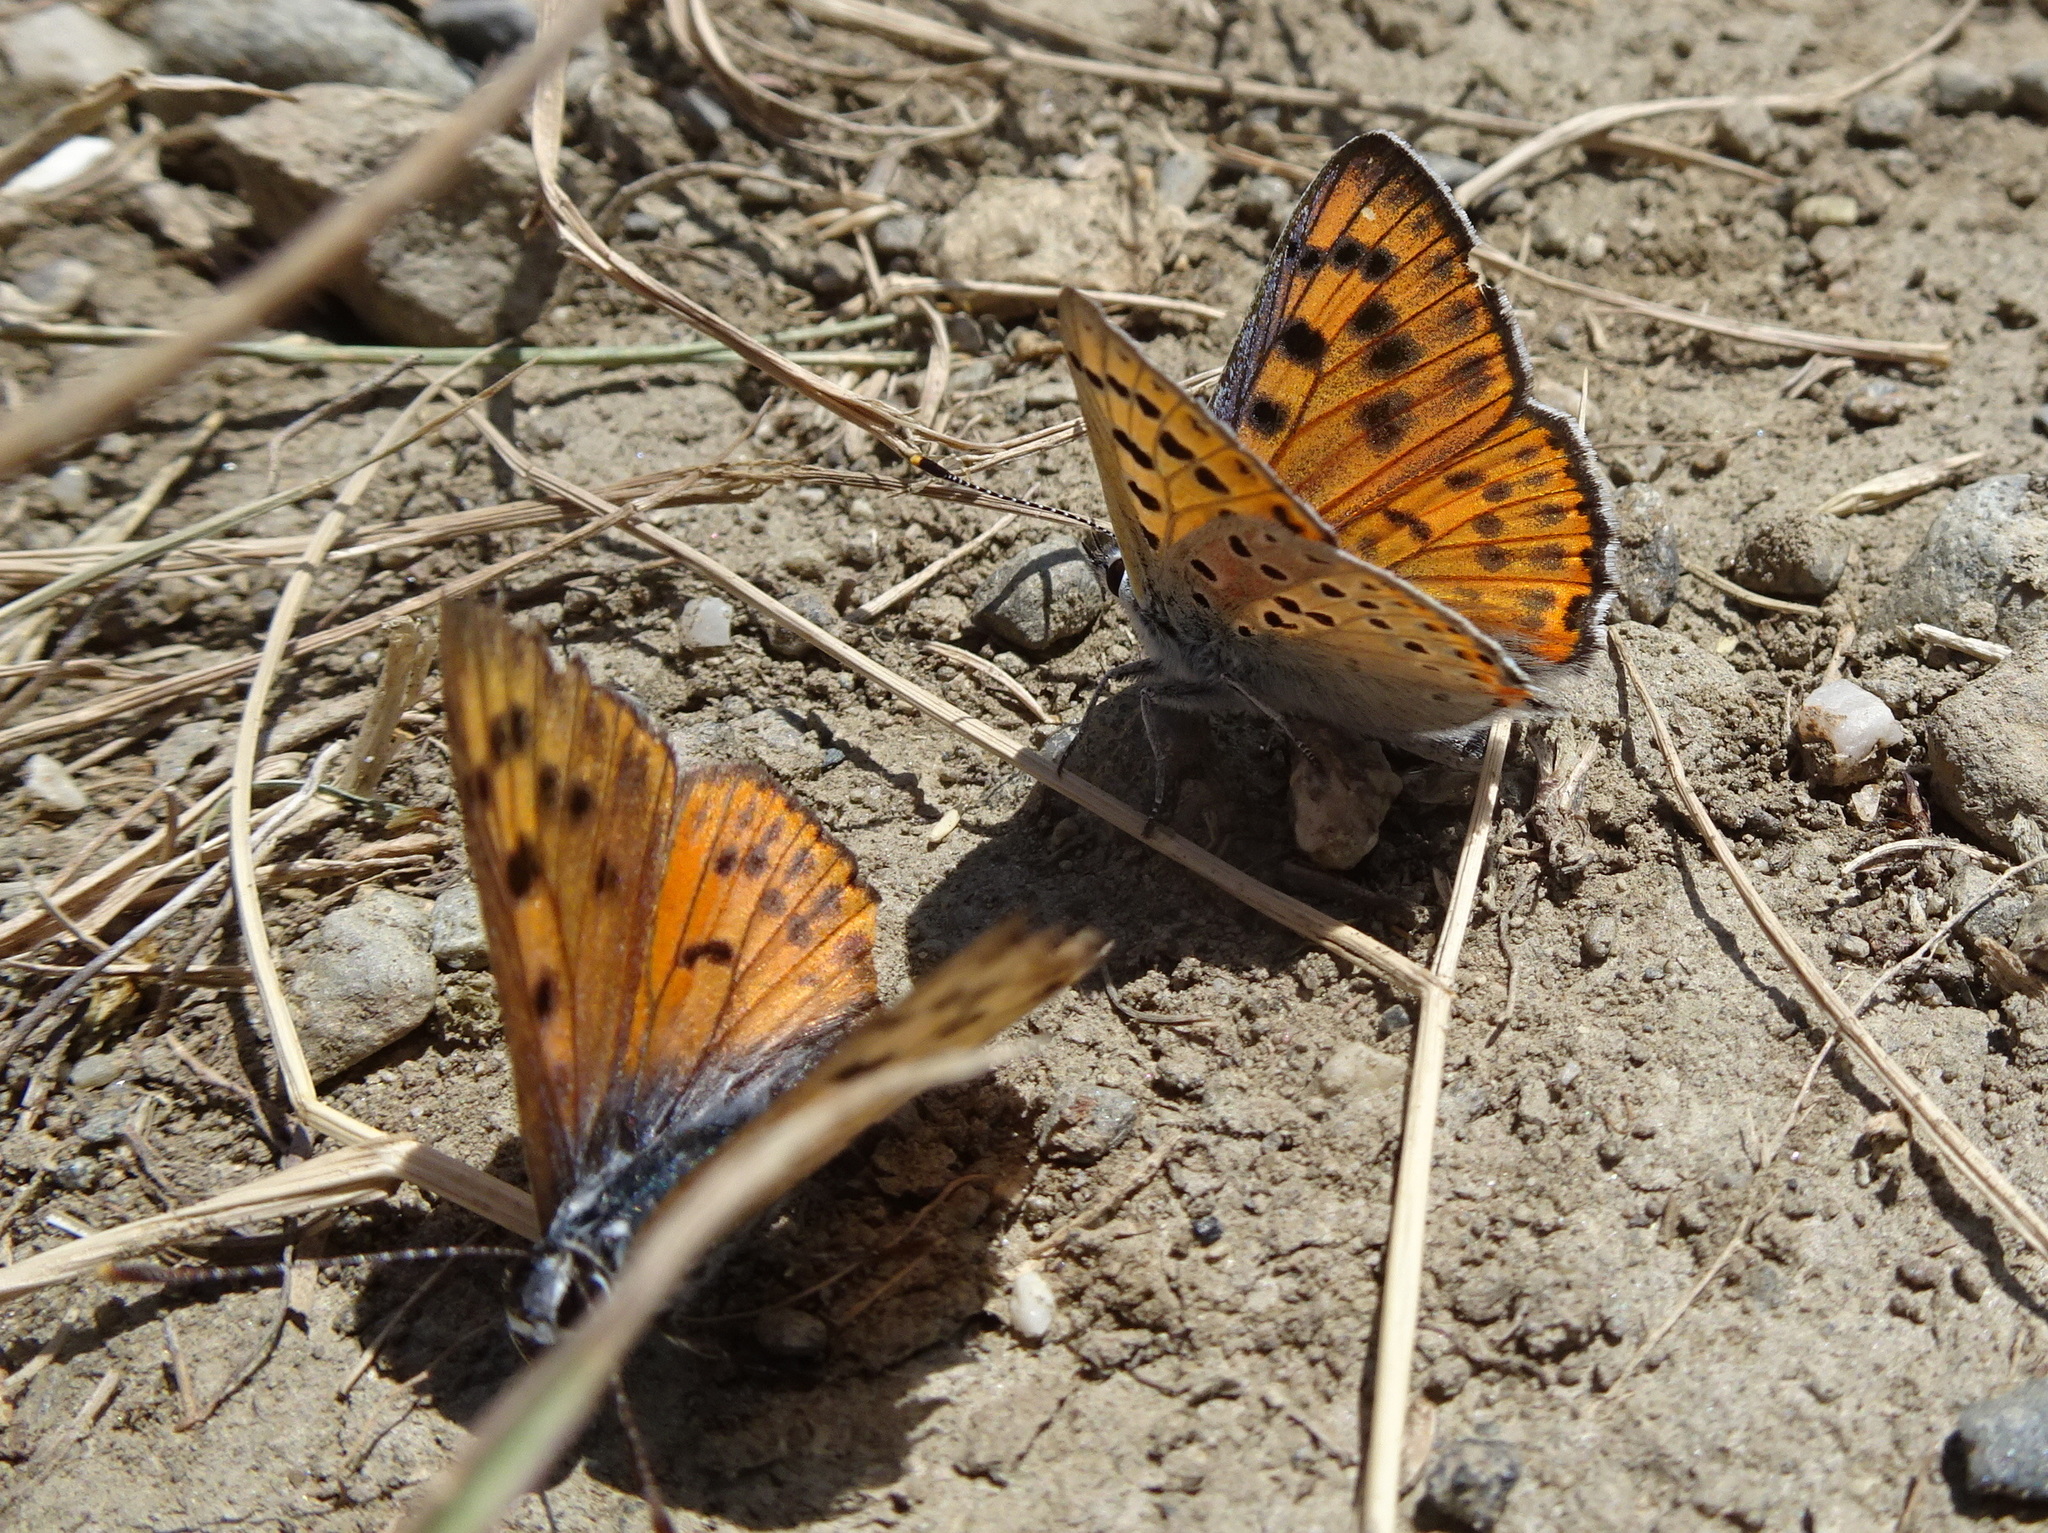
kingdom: Animalia
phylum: Arthropoda
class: Insecta
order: Lepidoptera
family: Lycaenidae
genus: Lycaena
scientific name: Lycaena alciphron
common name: Purple-shot copper
